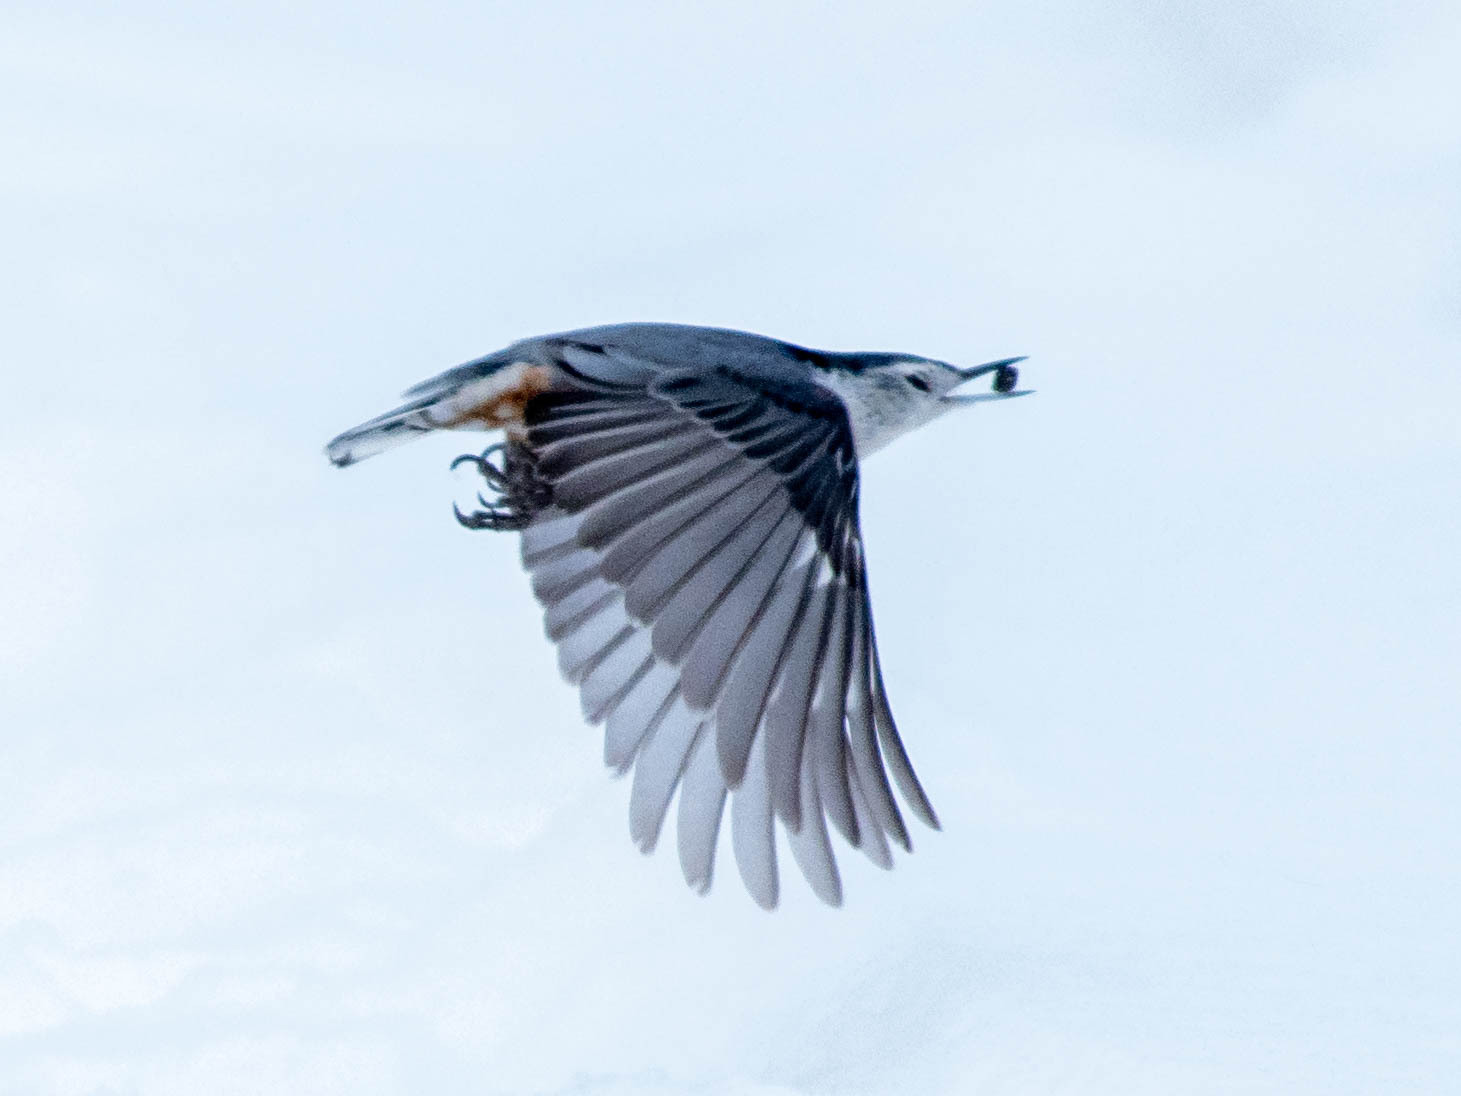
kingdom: Animalia
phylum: Chordata
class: Aves
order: Passeriformes
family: Sittidae
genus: Sitta
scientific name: Sitta carolinensis
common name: White-breasted nuthatch
